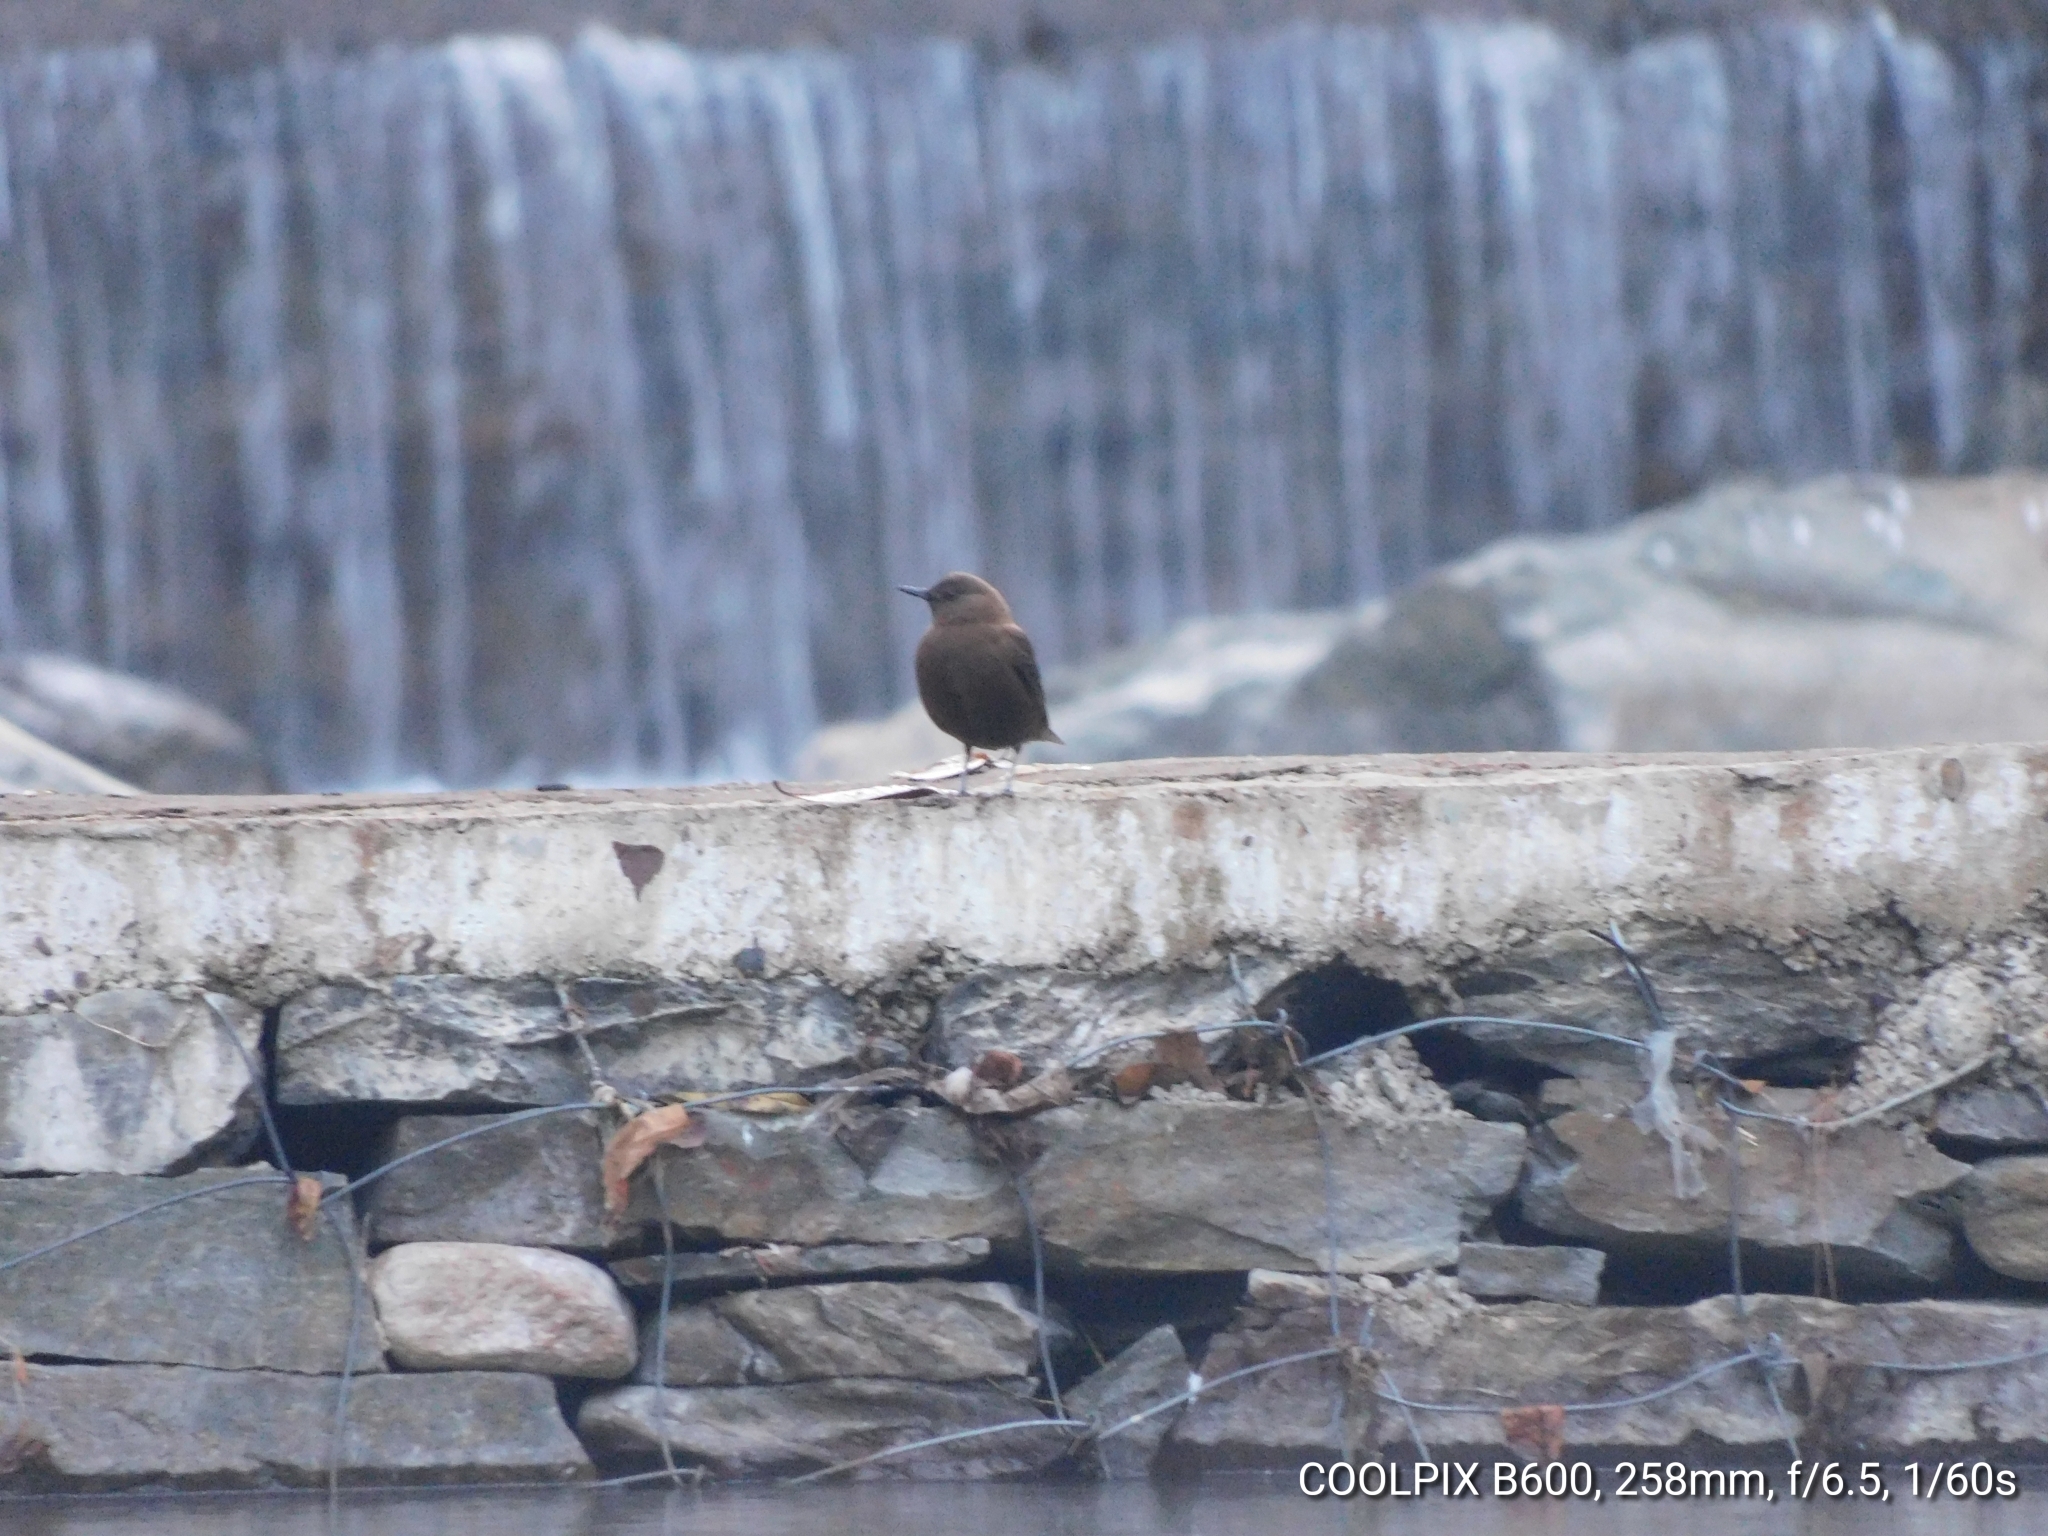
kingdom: Animalia
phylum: Chordata
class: Aves
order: Passeriformes
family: Cinclidae
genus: Cinclus
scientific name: Cinclus pallasii
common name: Brown dipper
